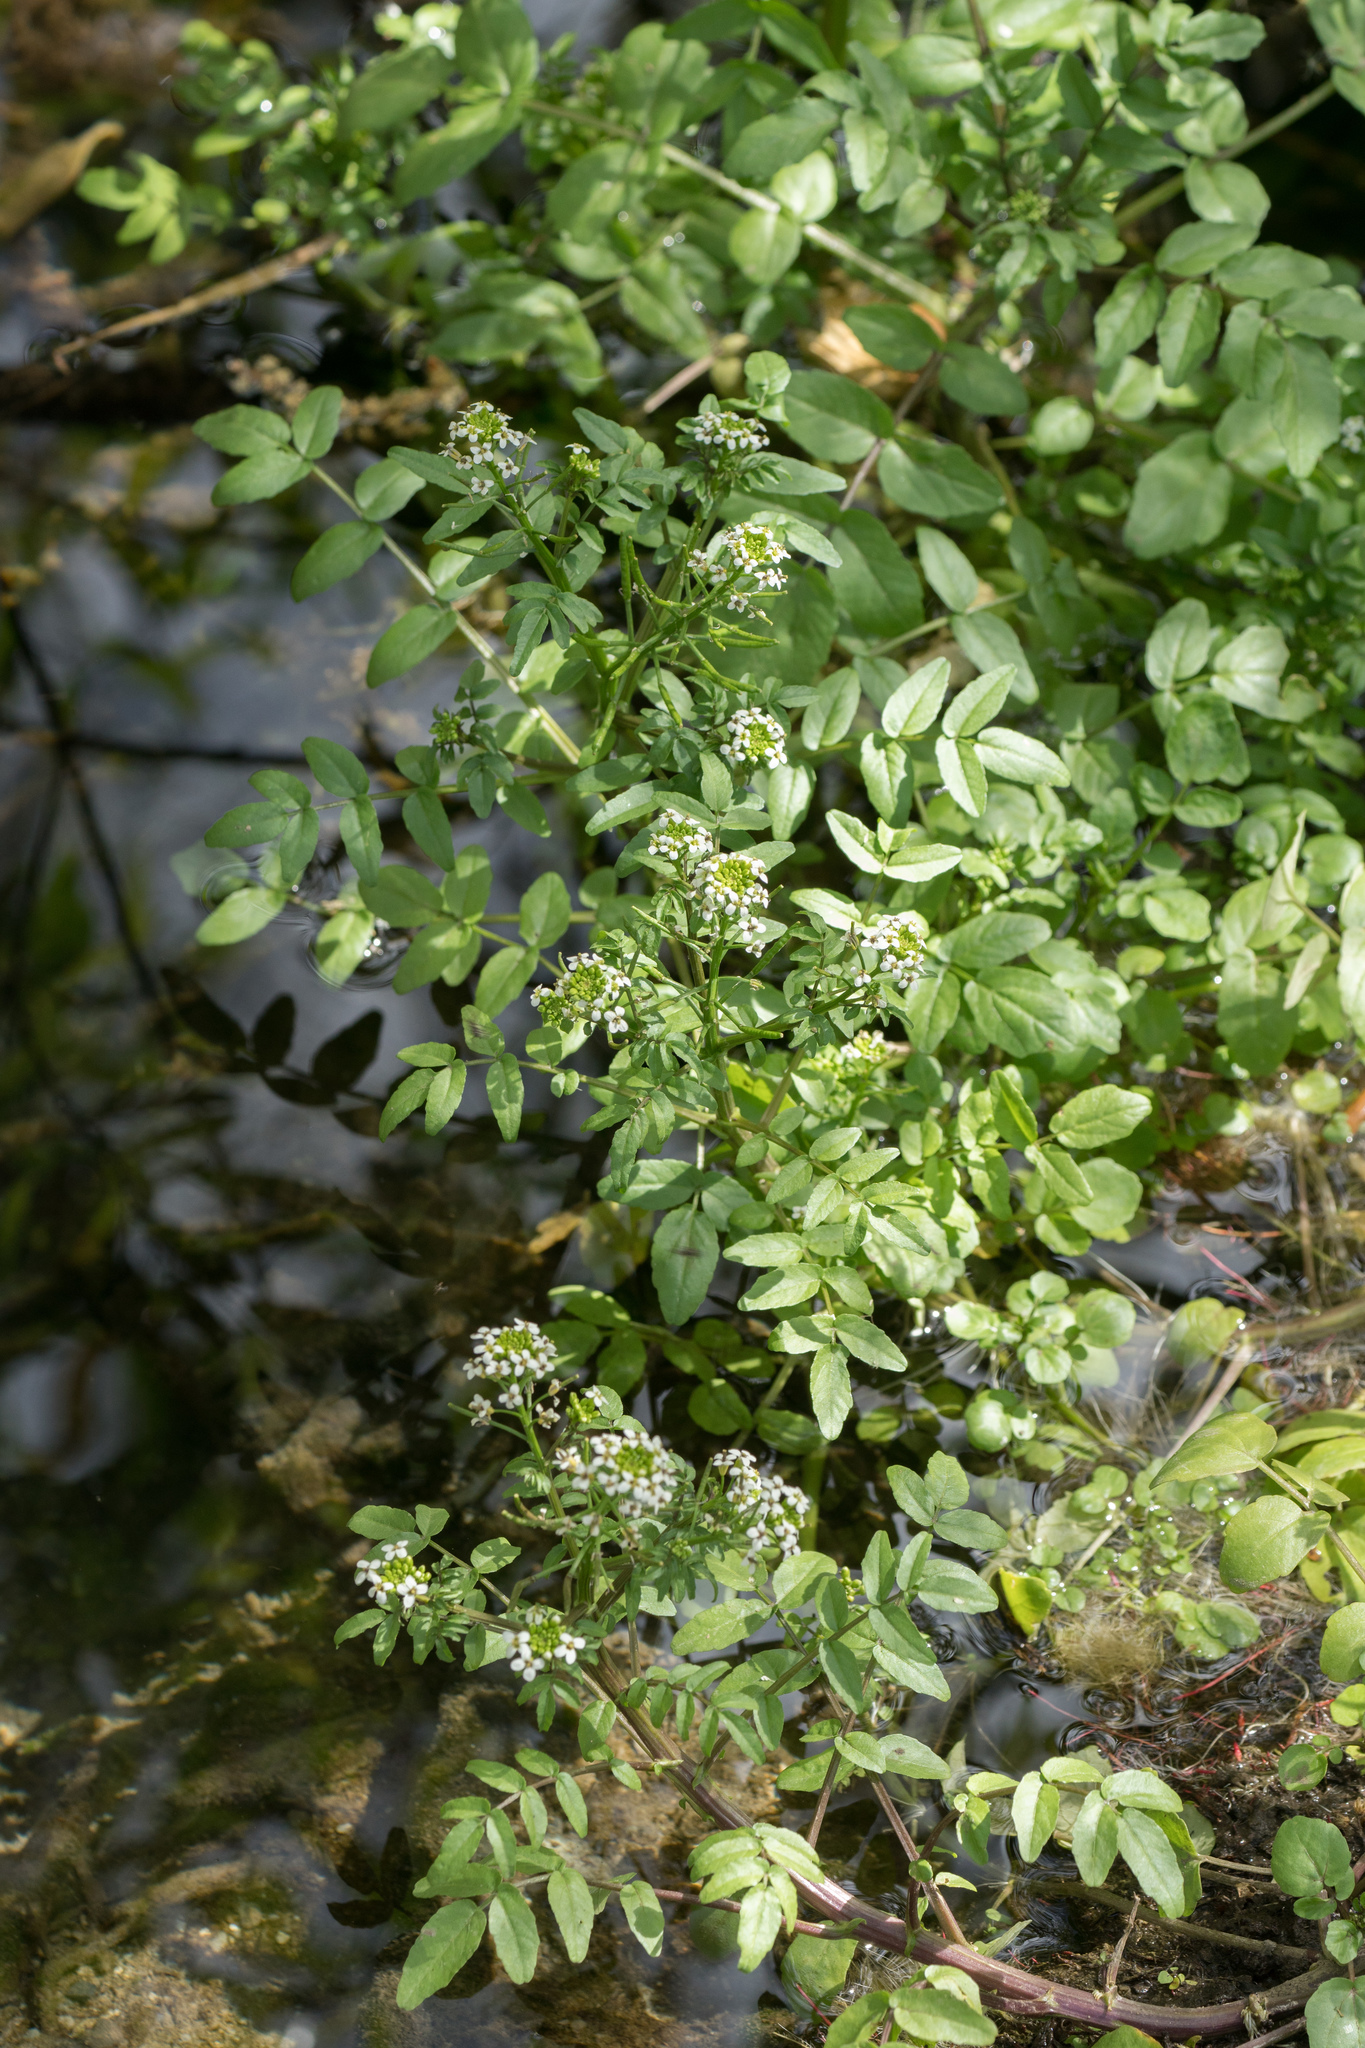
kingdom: Plantae
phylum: Tracheophyta
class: Magnoliopsida
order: Brassicales
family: Brassicaceae
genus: Nasturtium
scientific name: Nasturtium officinale
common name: Watercress
